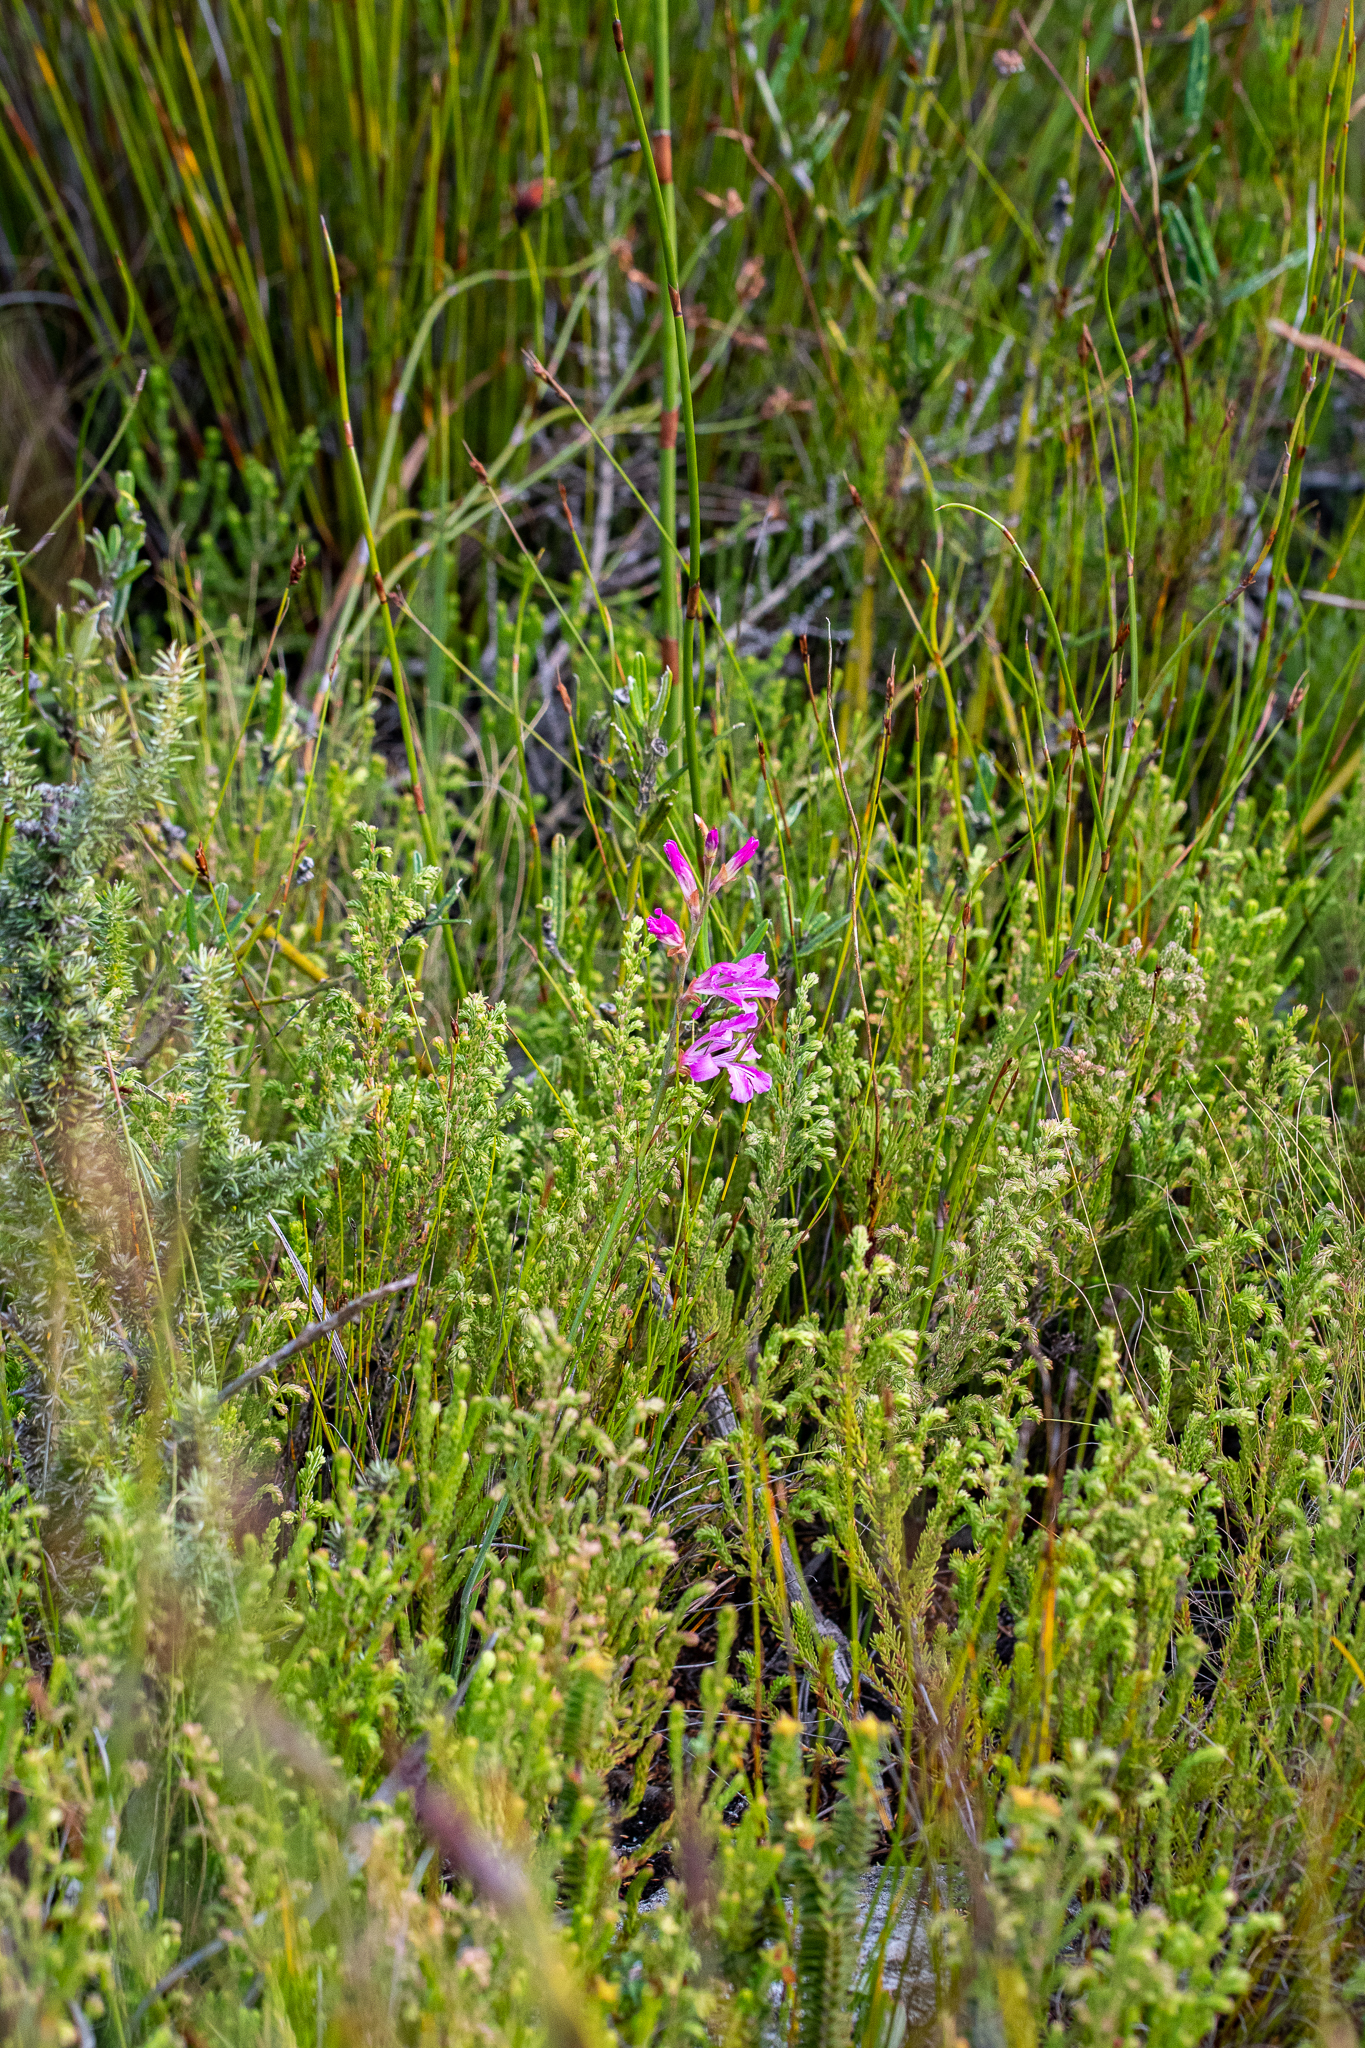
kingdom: Plantae
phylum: Tracheophyta
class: Liliopsida
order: Asparagales
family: Iridaceae
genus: Tritoniopsis
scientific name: Tritoniopsis lata
